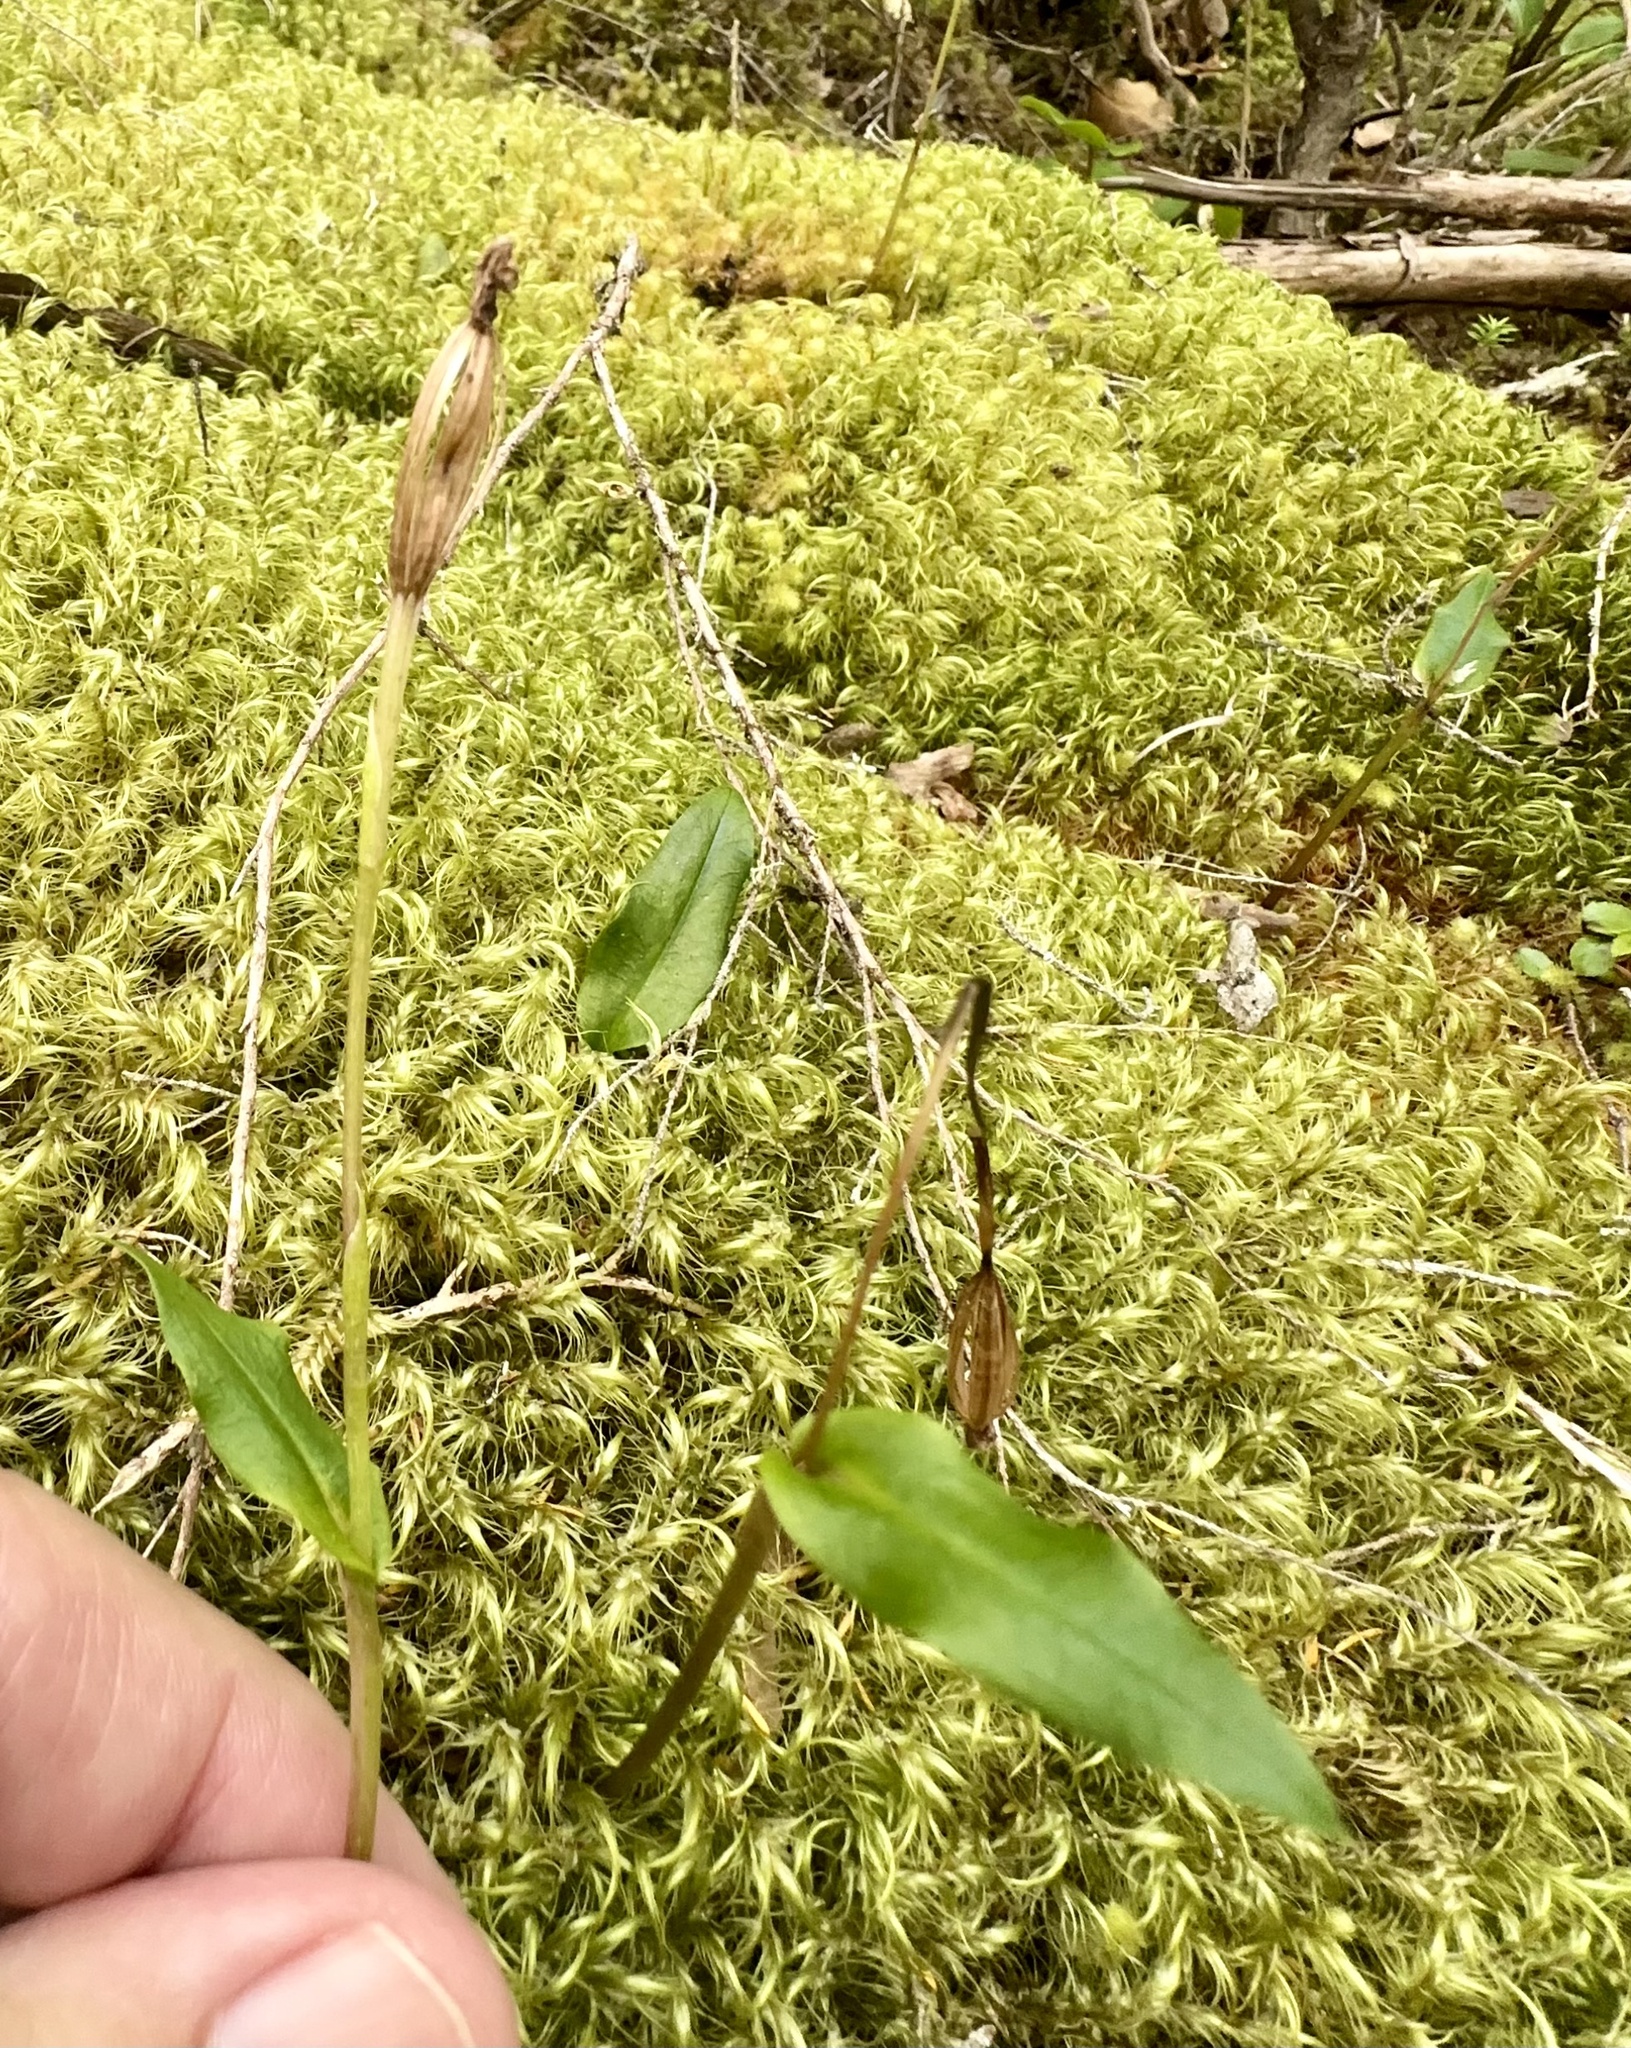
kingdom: Plantae
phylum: Tracheophyta
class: Liliopsida
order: Asparagales
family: Orchidaceae
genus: Adenochilus
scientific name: Adenochilus gracilis
